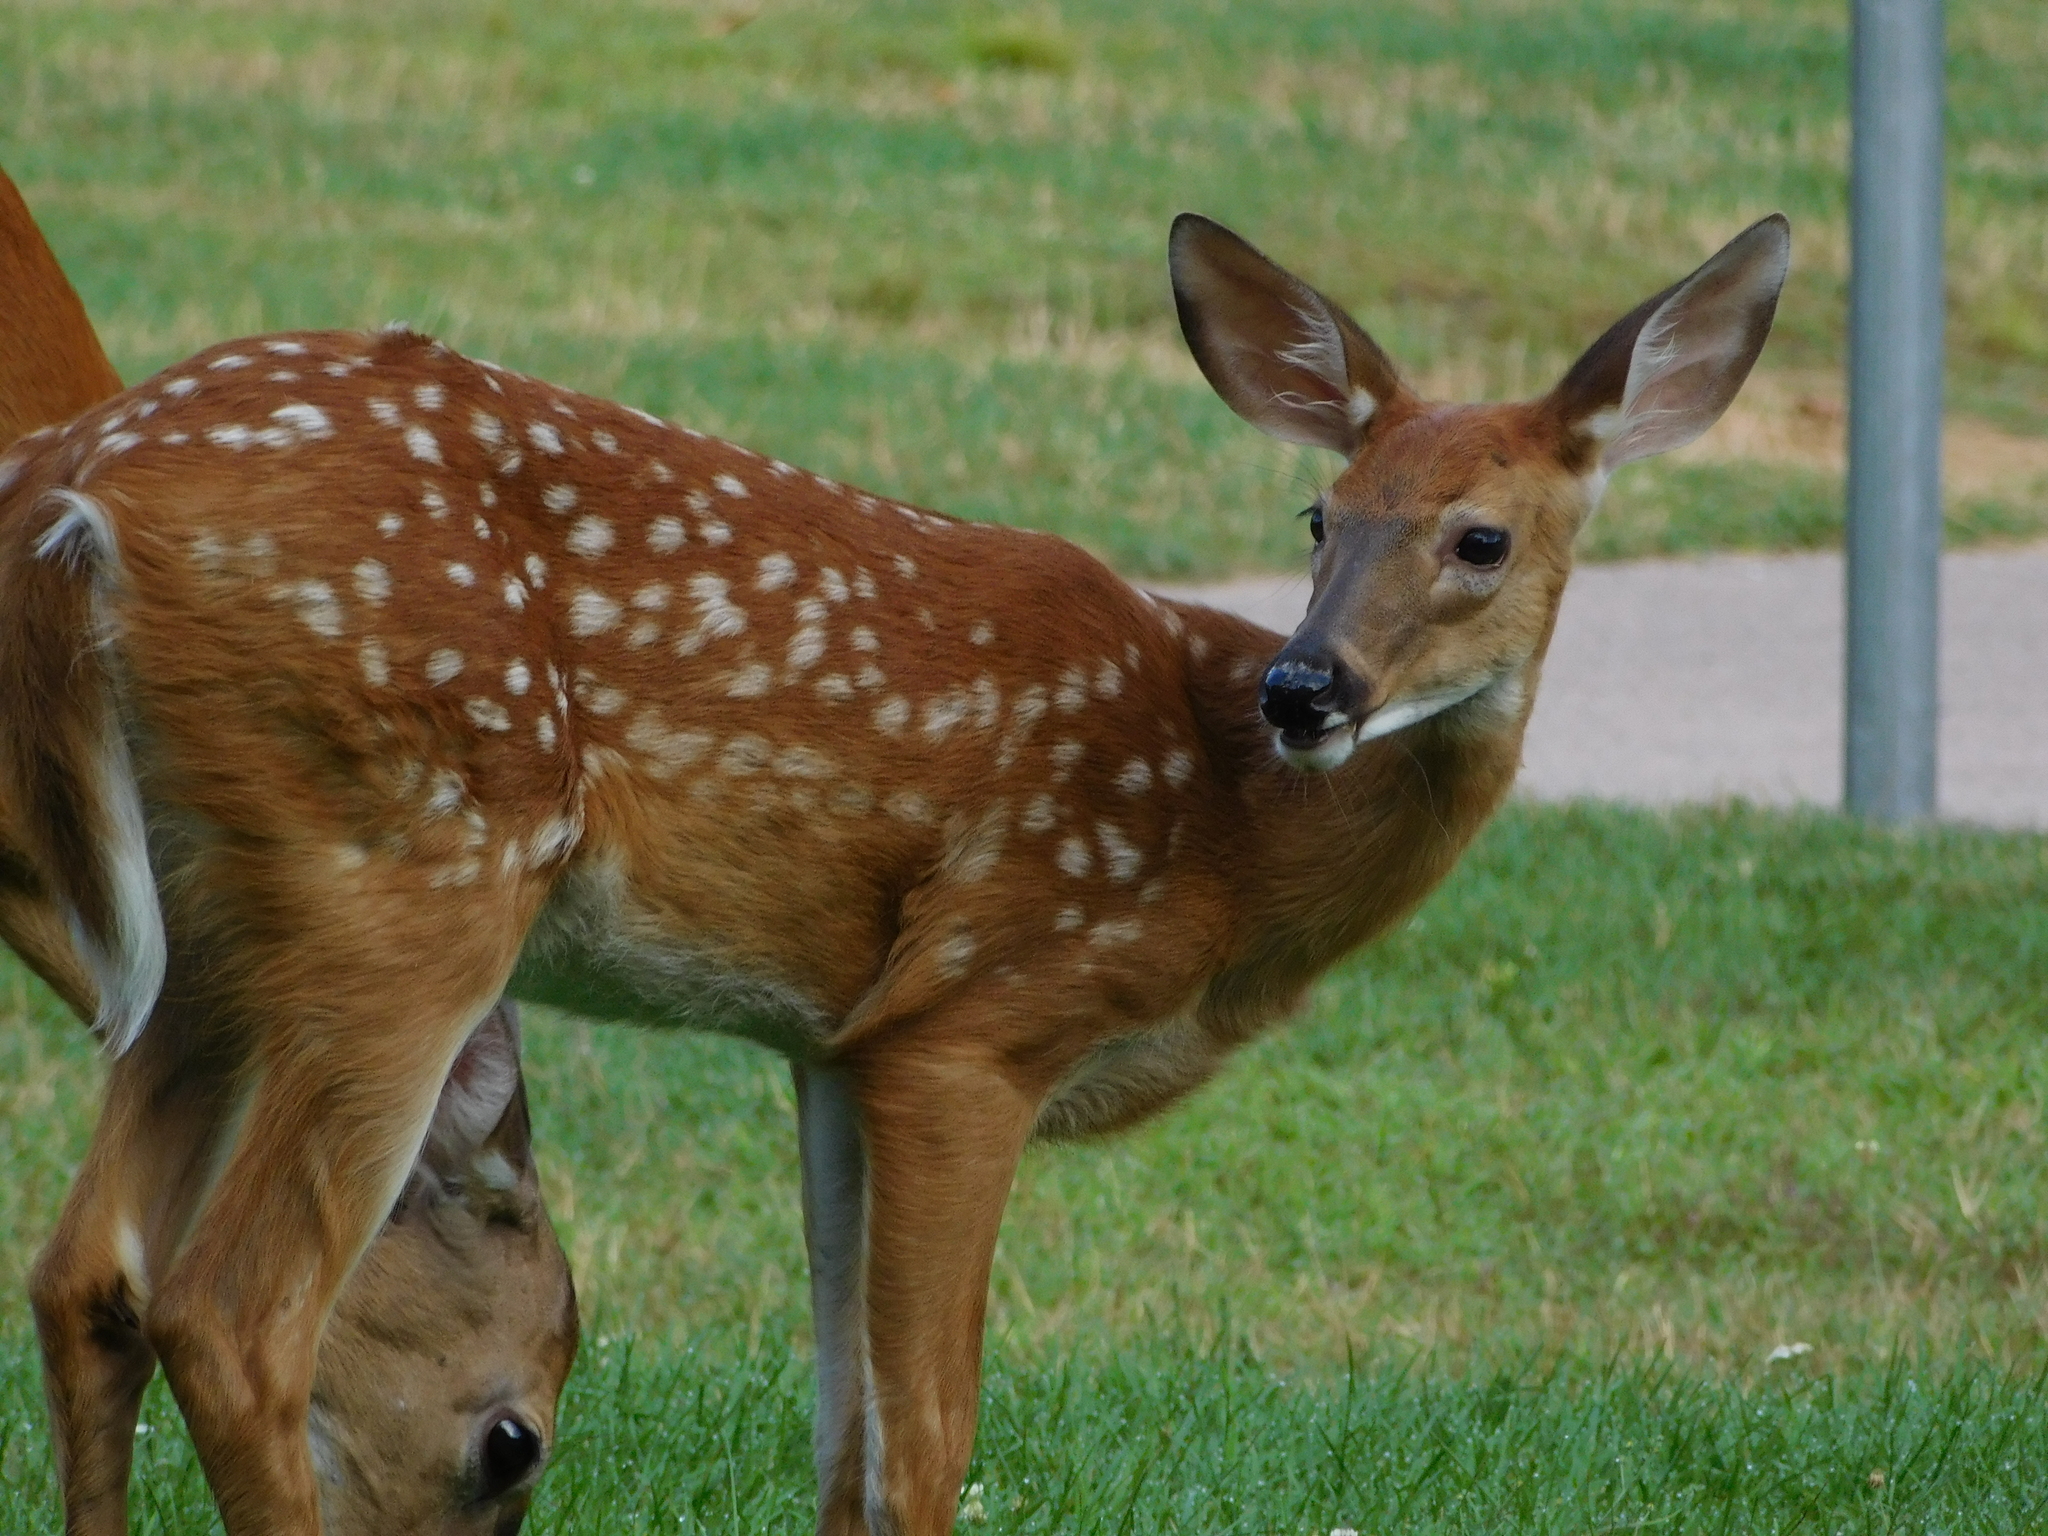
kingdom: Animalia
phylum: Chordata
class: Mammalia
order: Artiodactyla
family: Cervidae
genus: Odocoileus
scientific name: Odocoileus virginianus
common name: White-tailed deer
